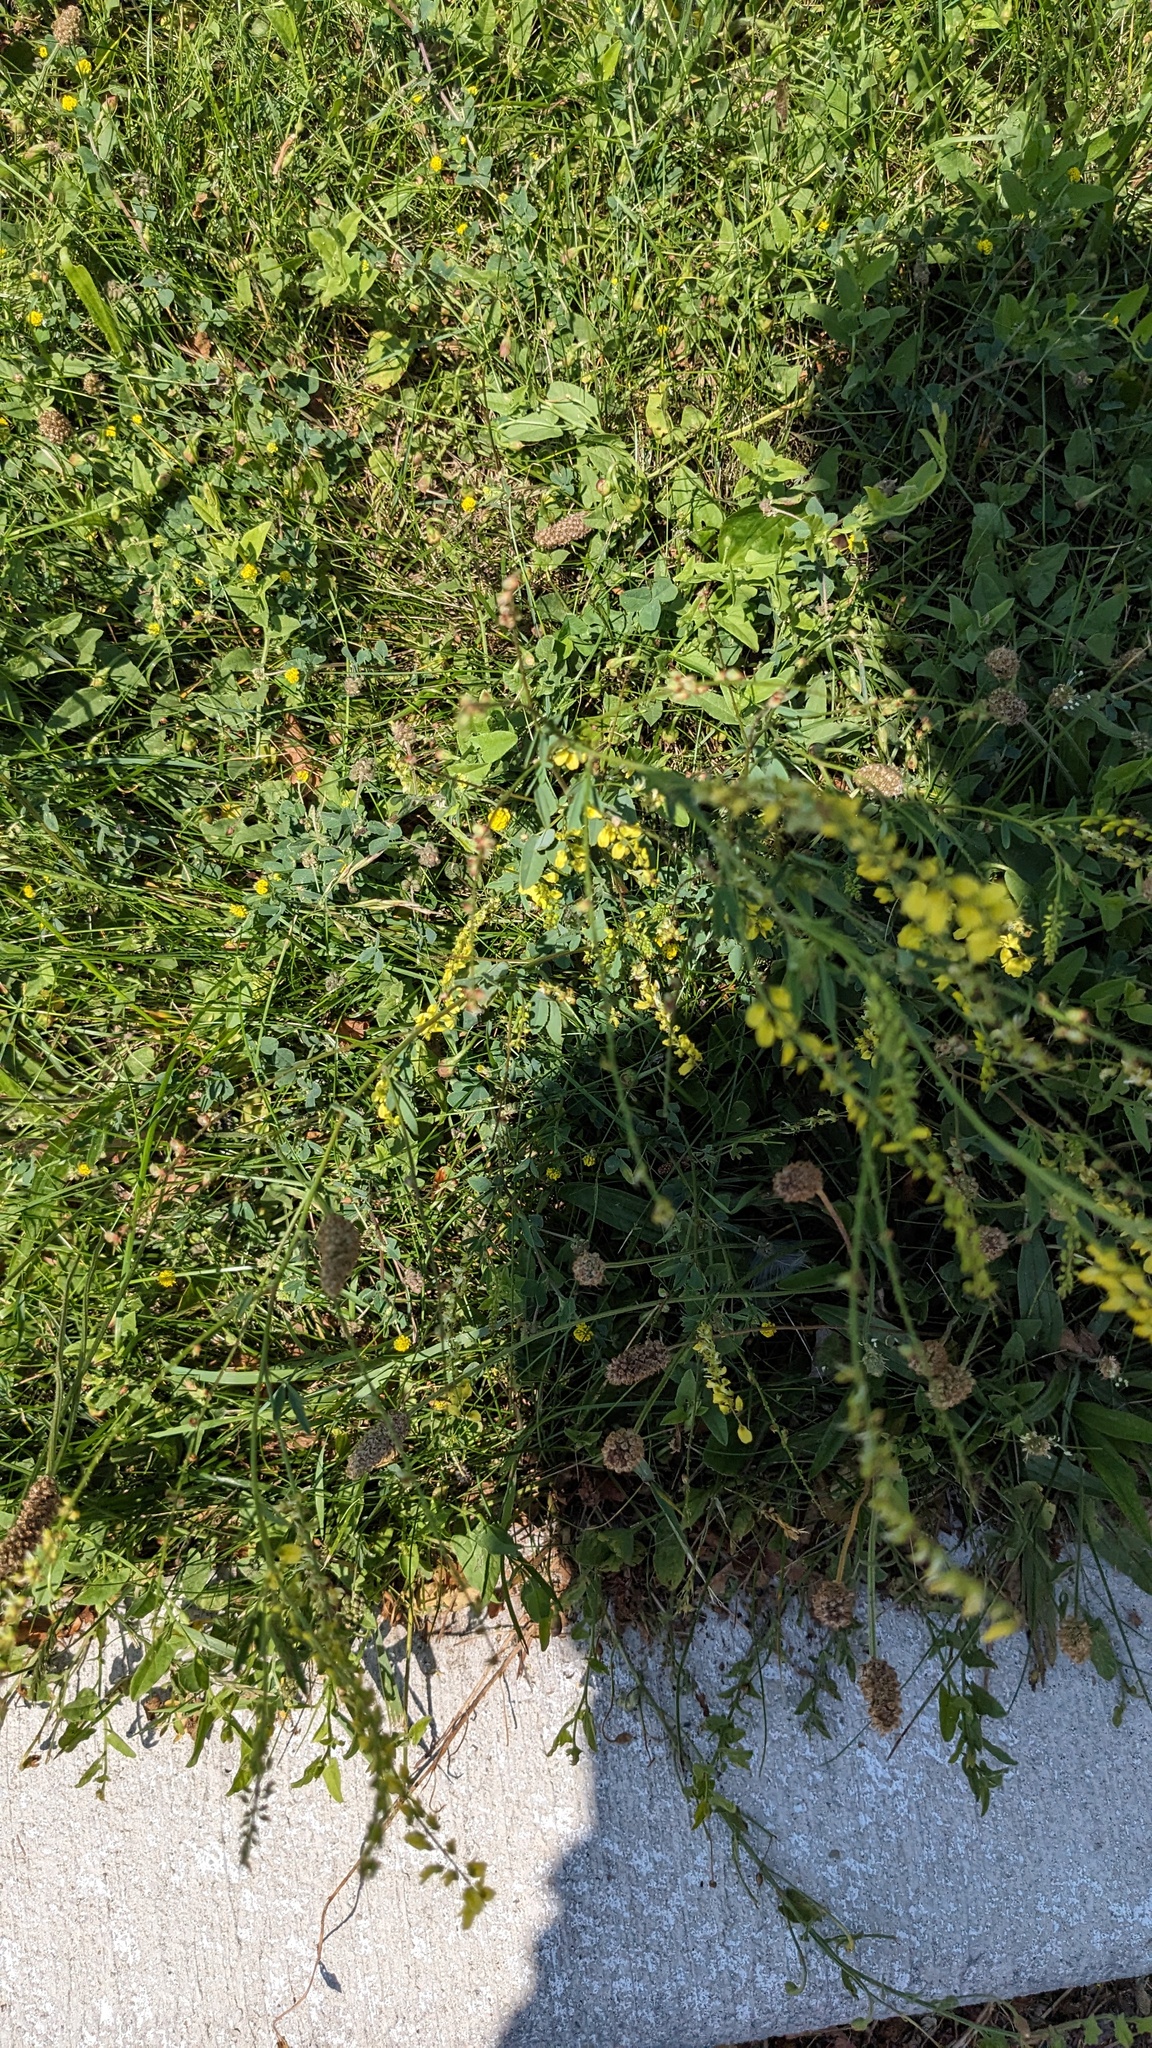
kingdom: Plantae
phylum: Tracheophyta
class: Magnoliopsida
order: Fabales
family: Fabaceae
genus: Melilotus
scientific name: Melilotus officinalis
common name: Sweetclover
